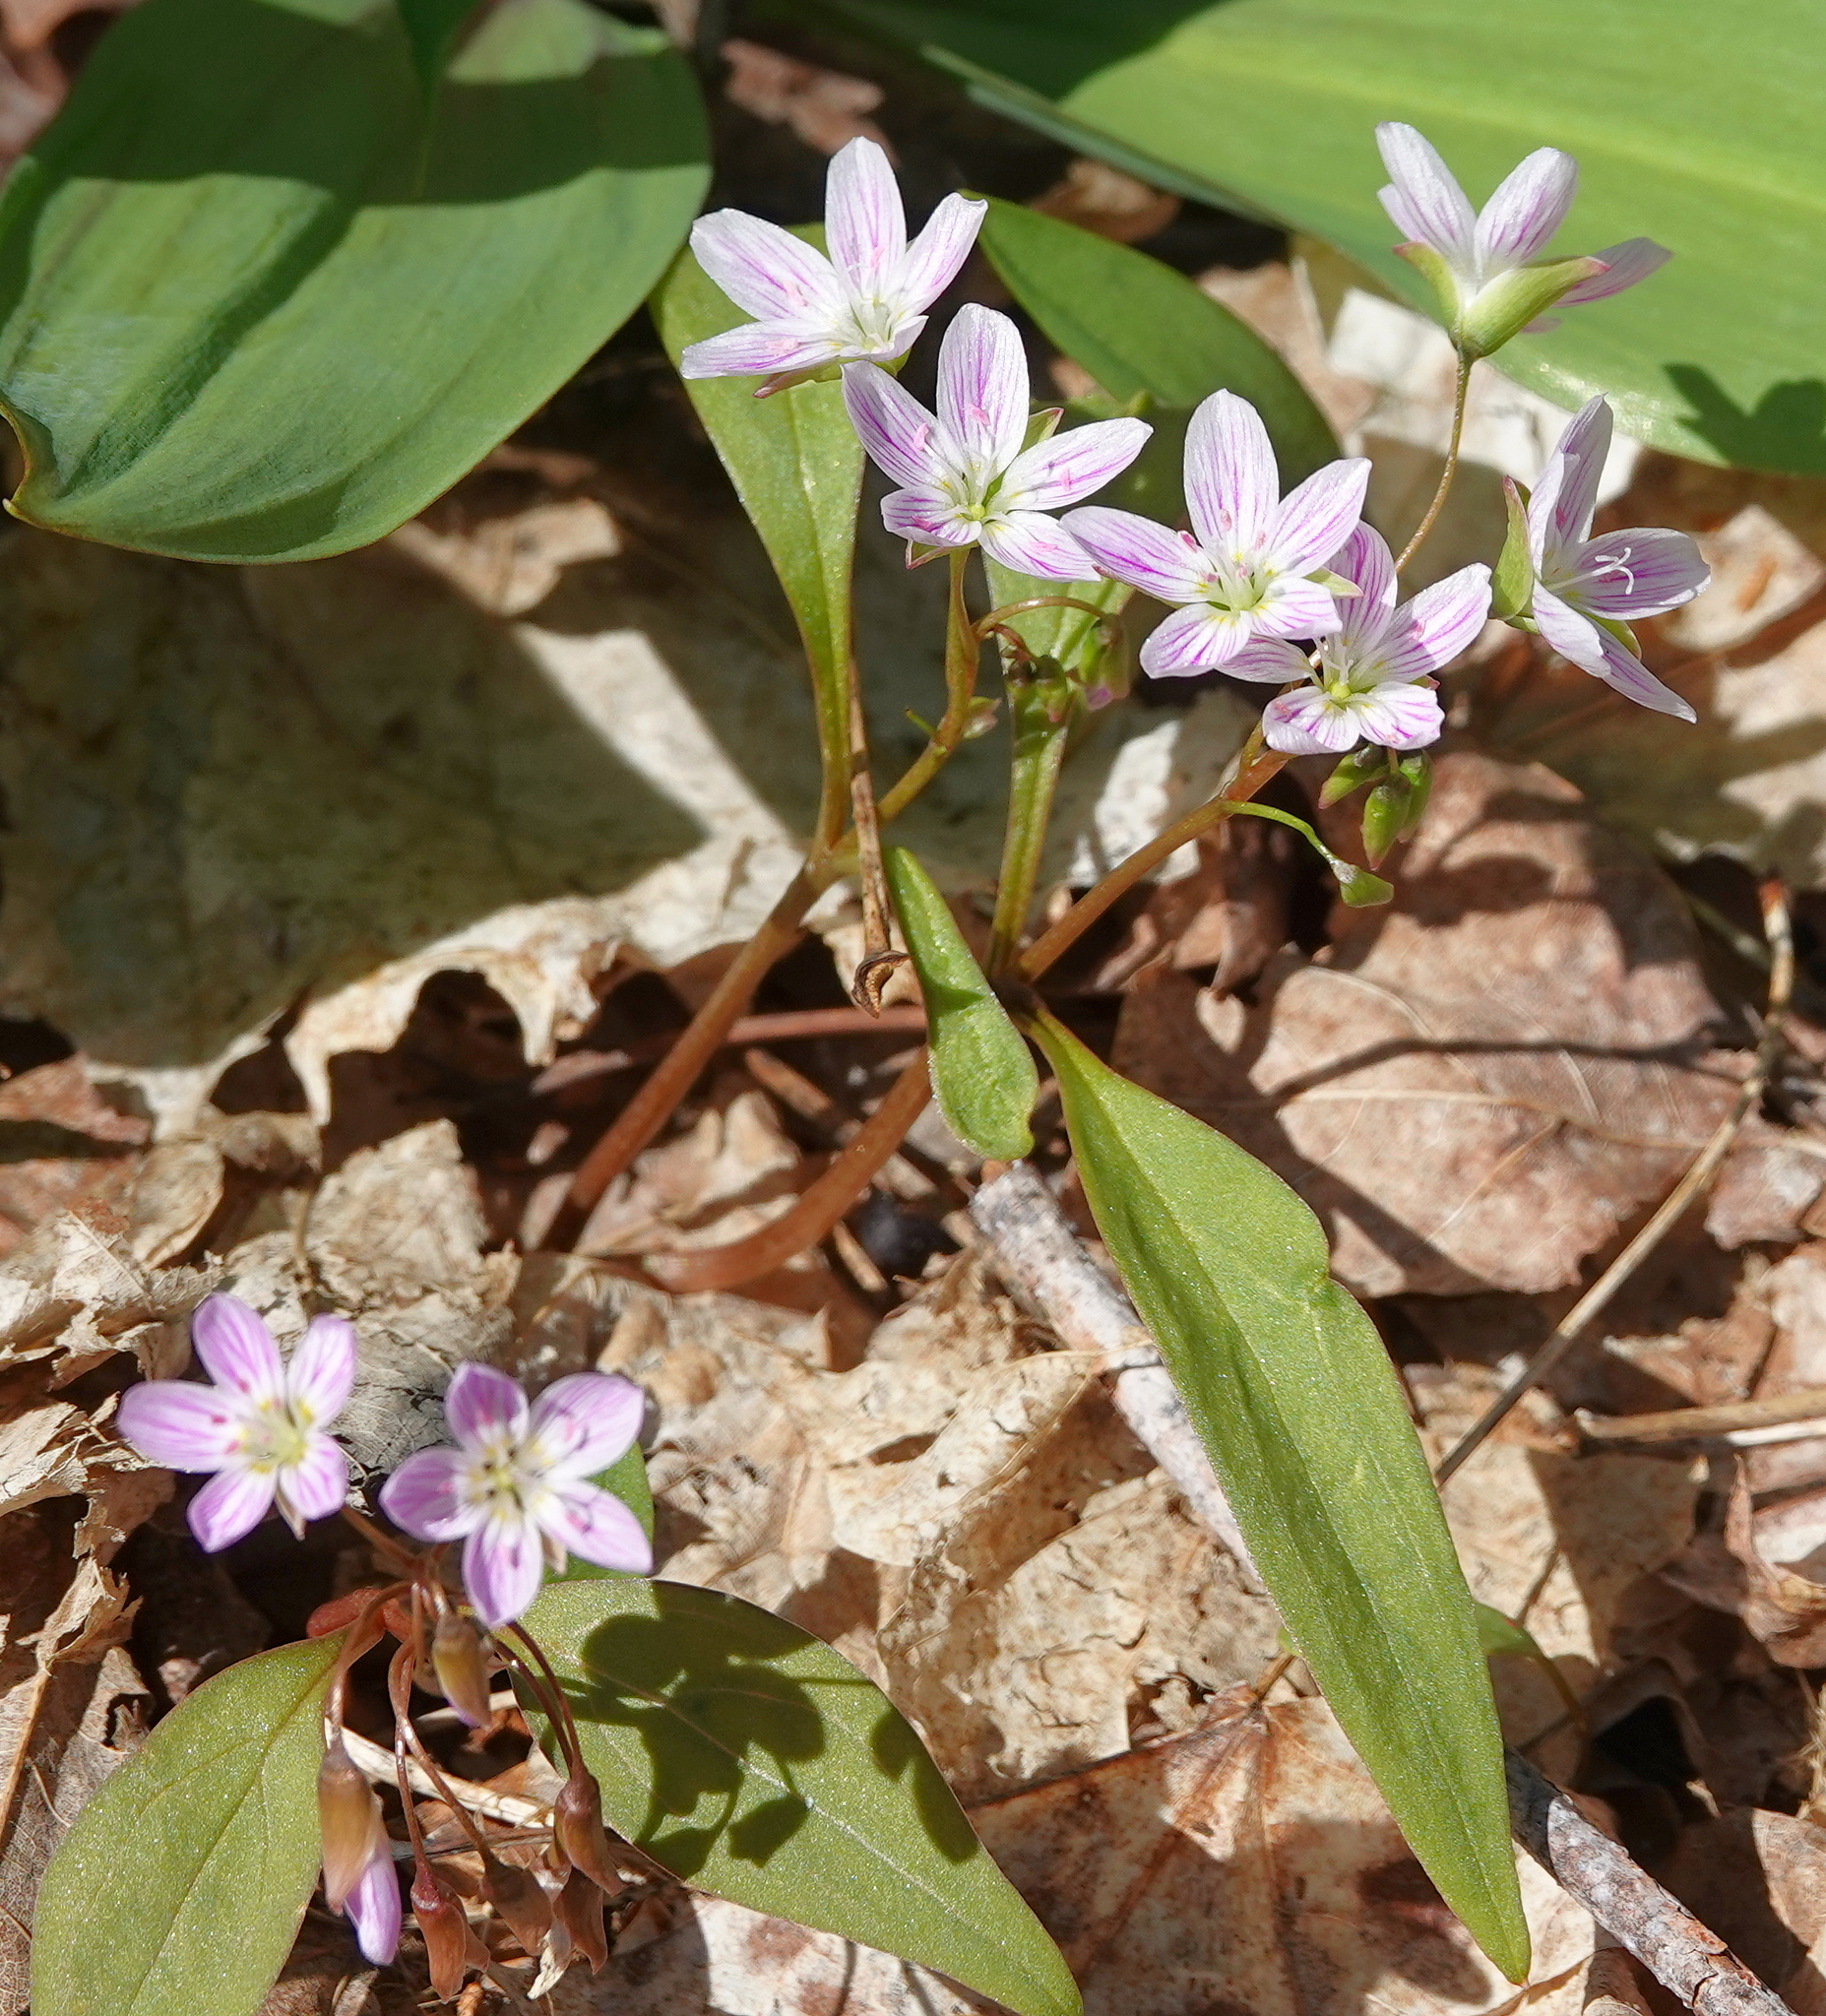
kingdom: Plantae
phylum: Tracheophyta
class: Magnoliopsida
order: Caryophyllales
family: Montiaceae
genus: Claytonia
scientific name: Claytonia caroliniana
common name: Carolina spring beauty
